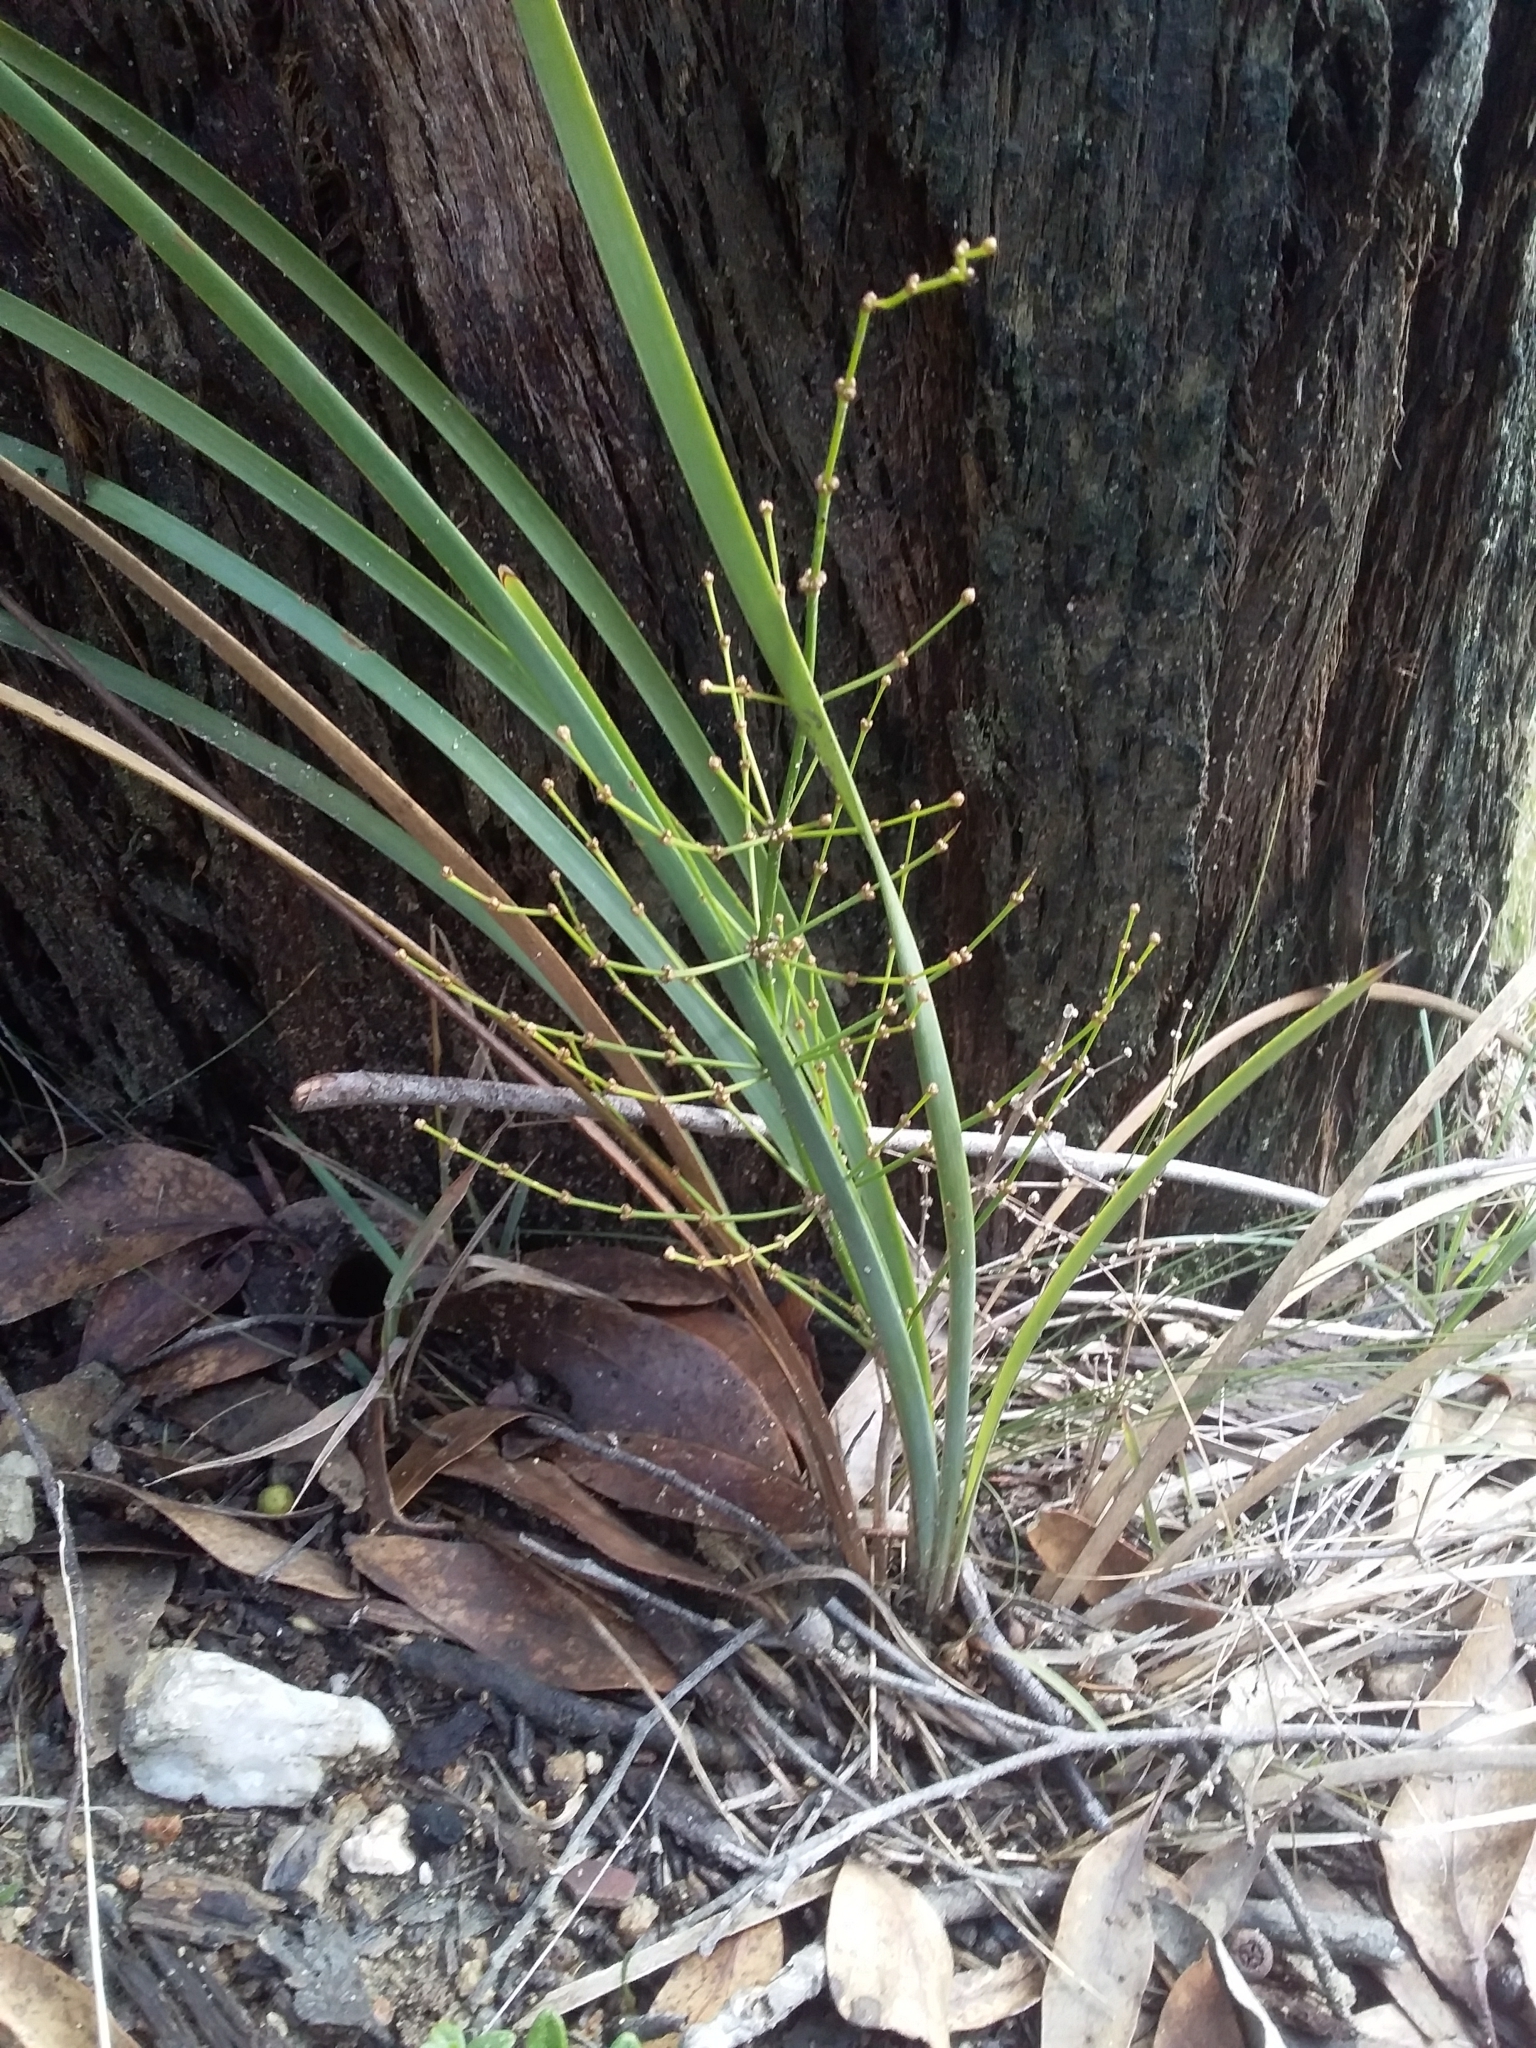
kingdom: Plantae
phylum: Tracheophyta
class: Liliopsida
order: Asparagales
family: Asparagaceae
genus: Lomandra
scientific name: Lomandra multiflora
